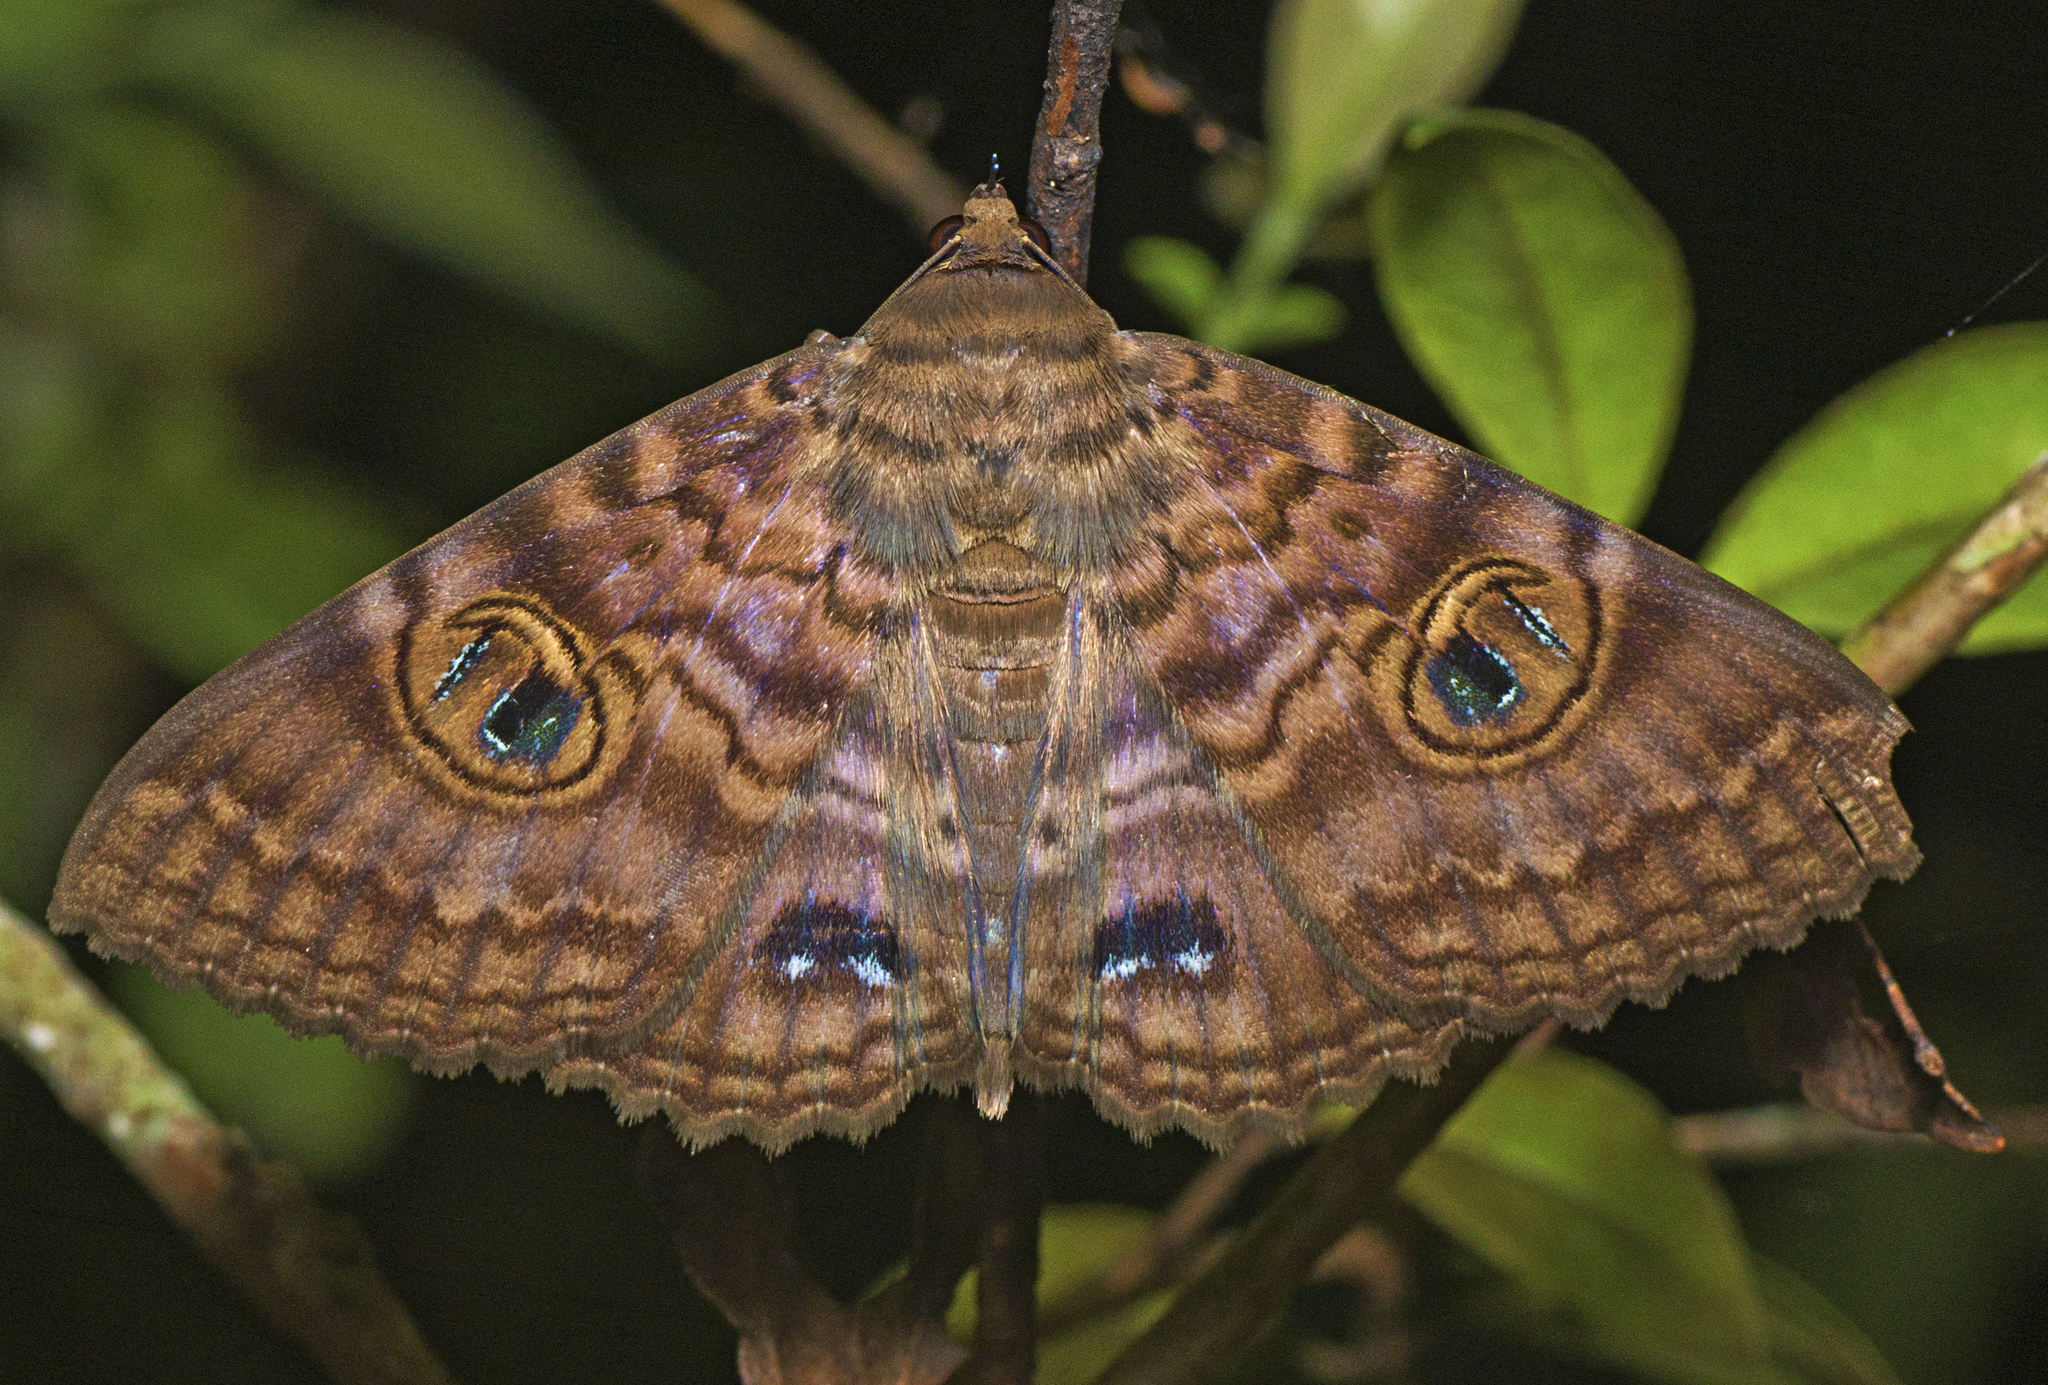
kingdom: Animalia
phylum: Arthropoda
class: Insecta
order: Lepidoptera
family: Erebidae
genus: Speiredonia
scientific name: Speiredonia spectans
